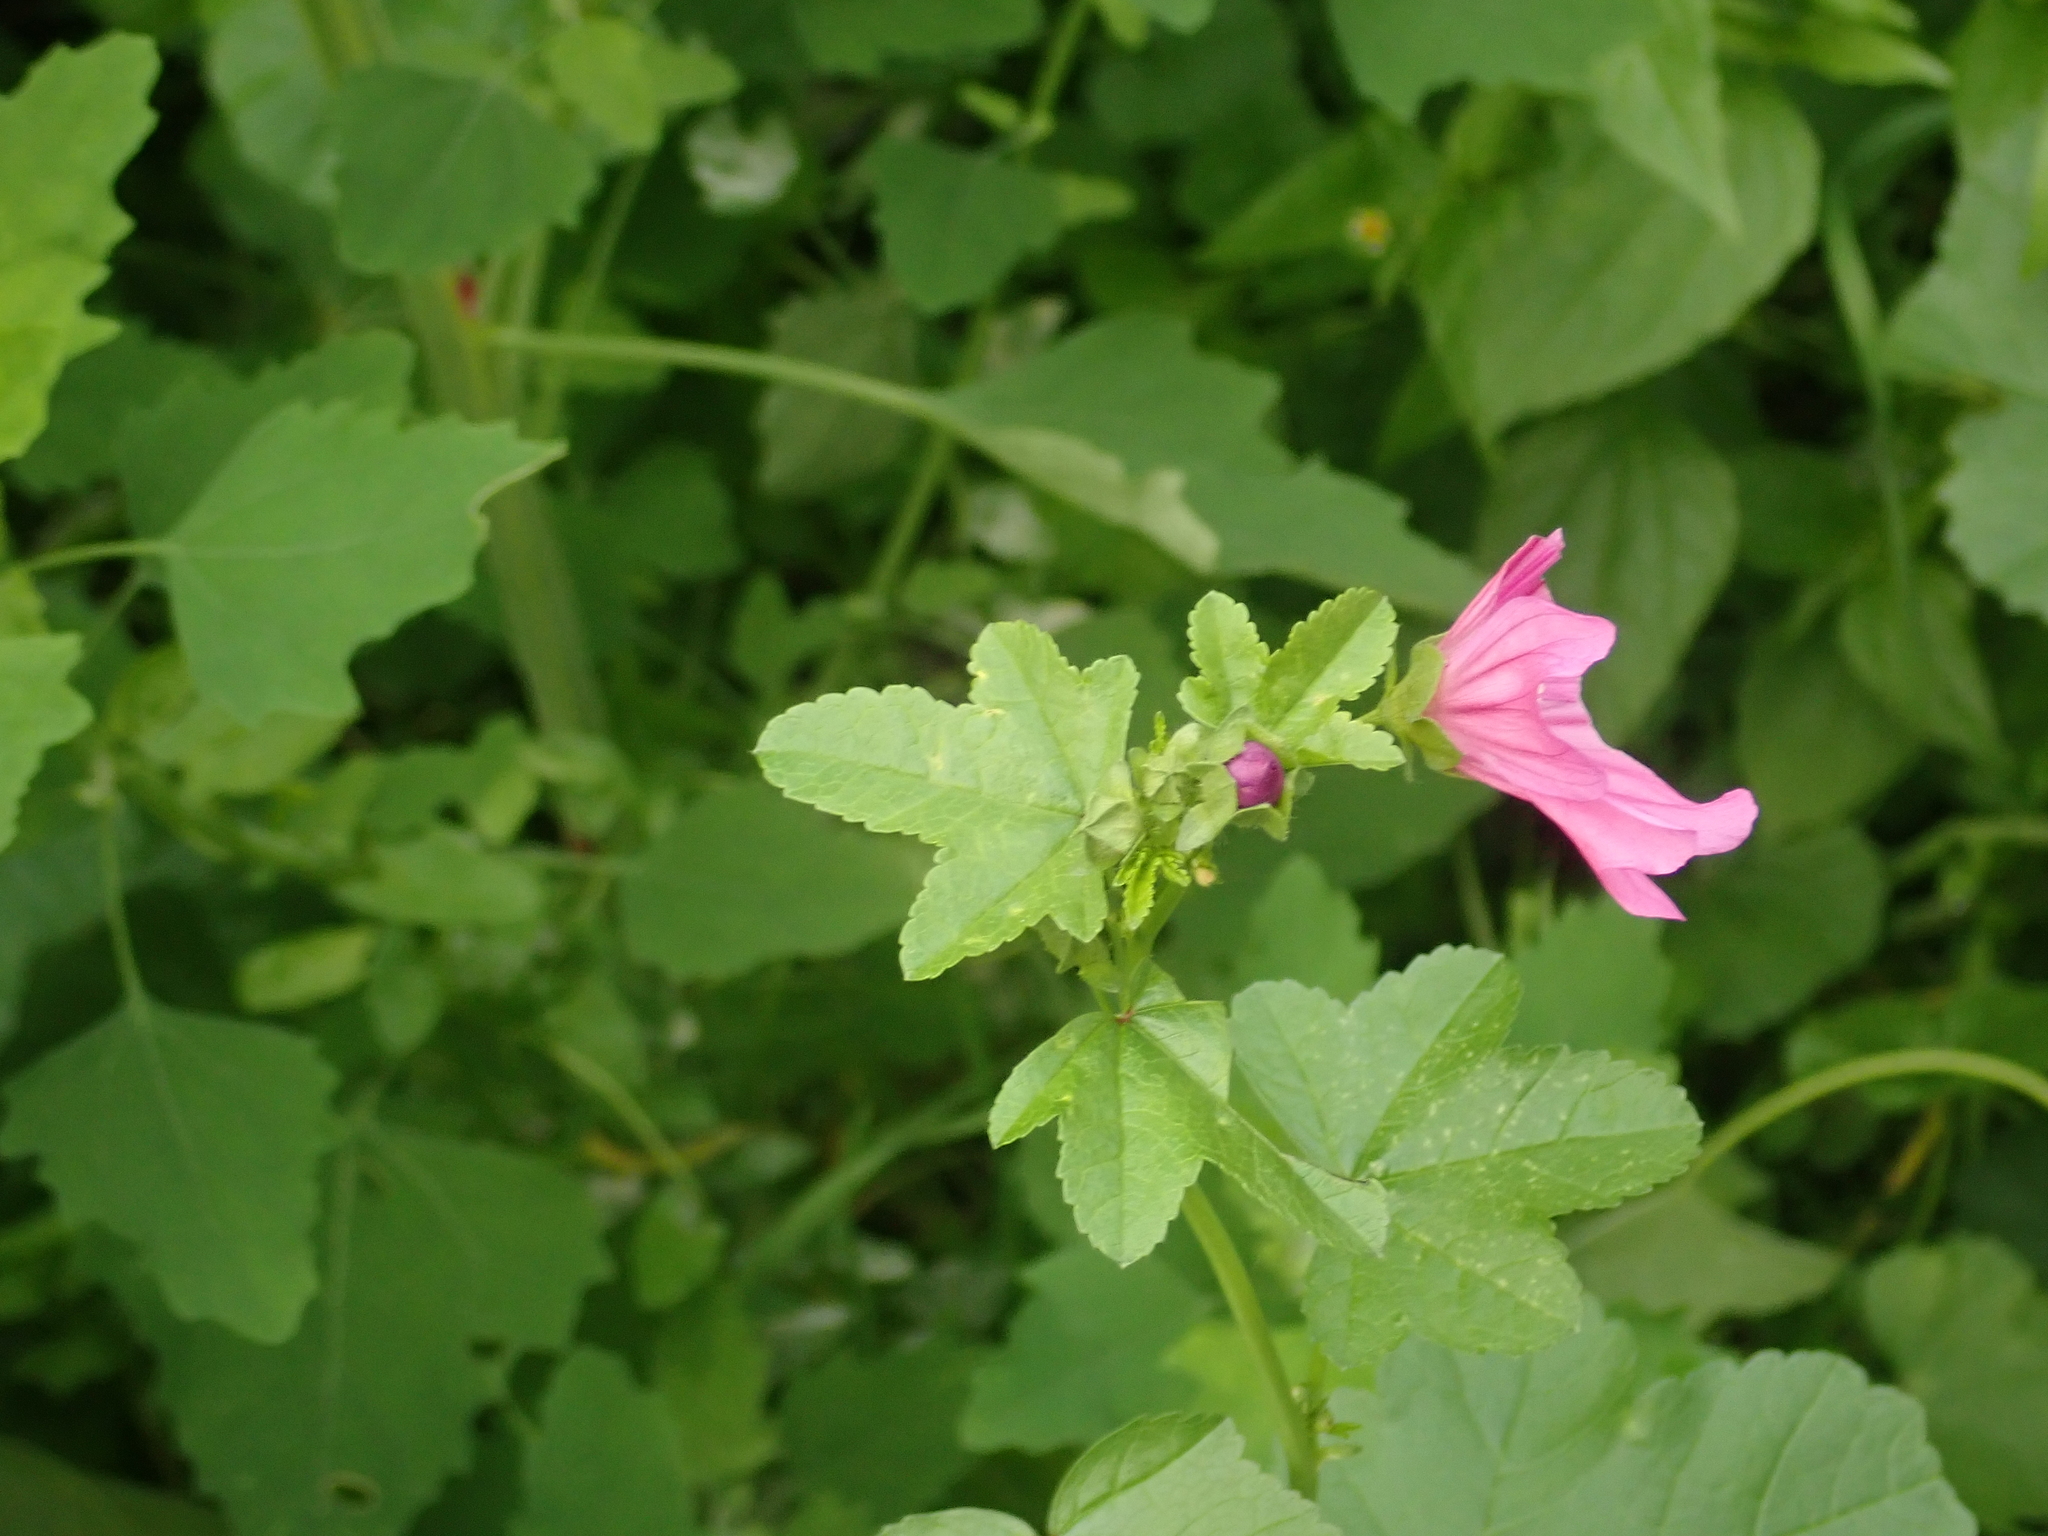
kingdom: Plantae
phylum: Tracheophyta
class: Magnoliopsida
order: Malvales
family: Malvaceae
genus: Malva
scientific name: Malva sylvestris
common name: Common mallow
